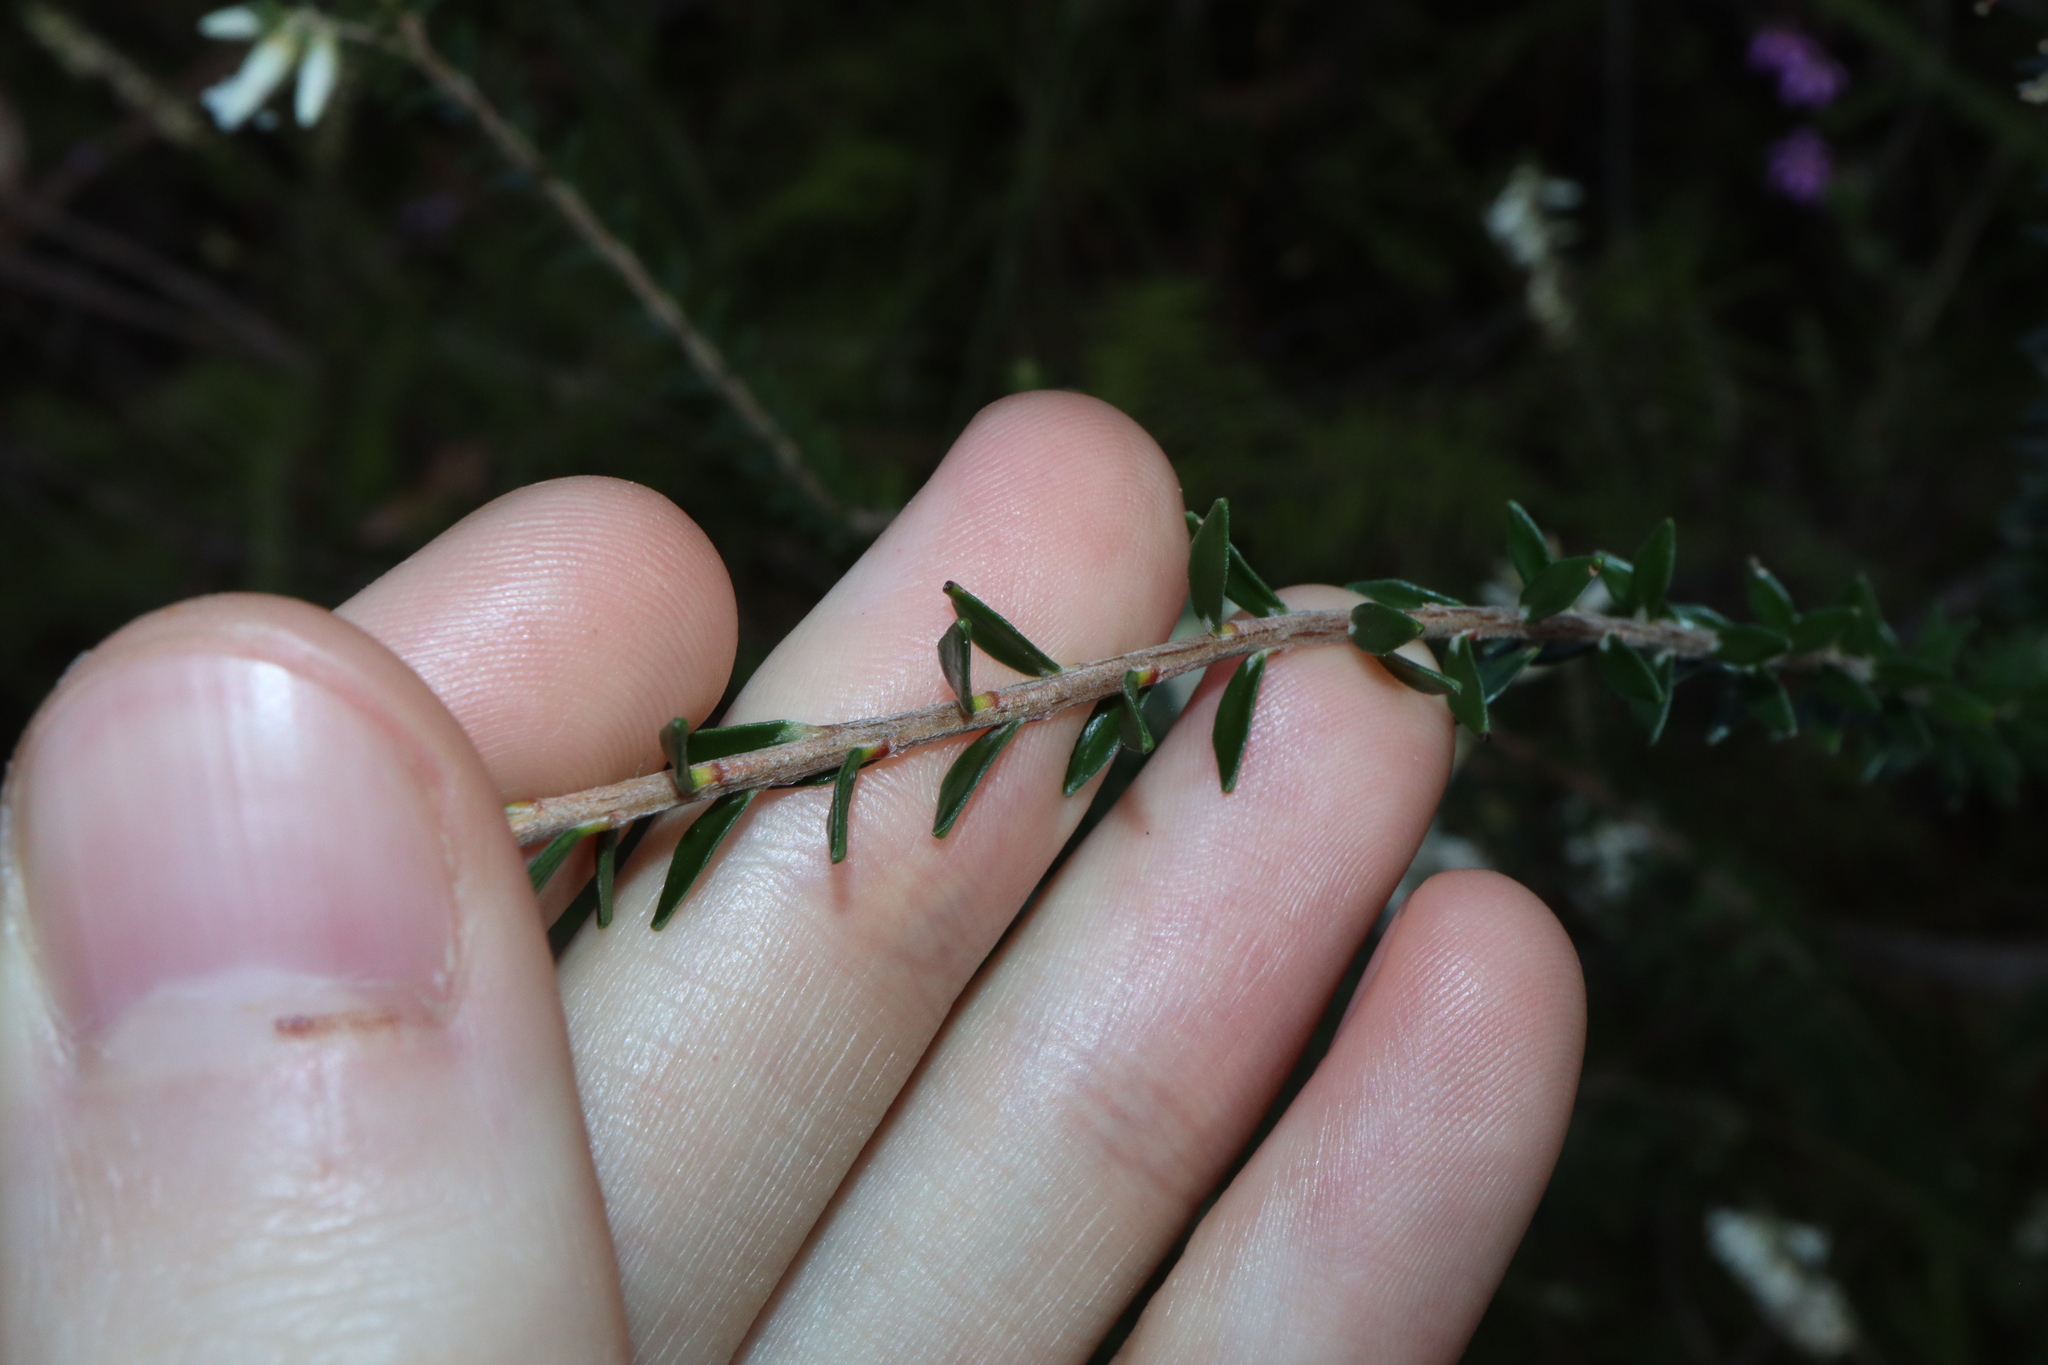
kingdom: Plantae
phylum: Tracheophyta
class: Magnoliopsida
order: Ericales
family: Ericaceae
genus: Epacris
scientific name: Epacris obtusifolia
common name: Blunt-leaf australian-heath
